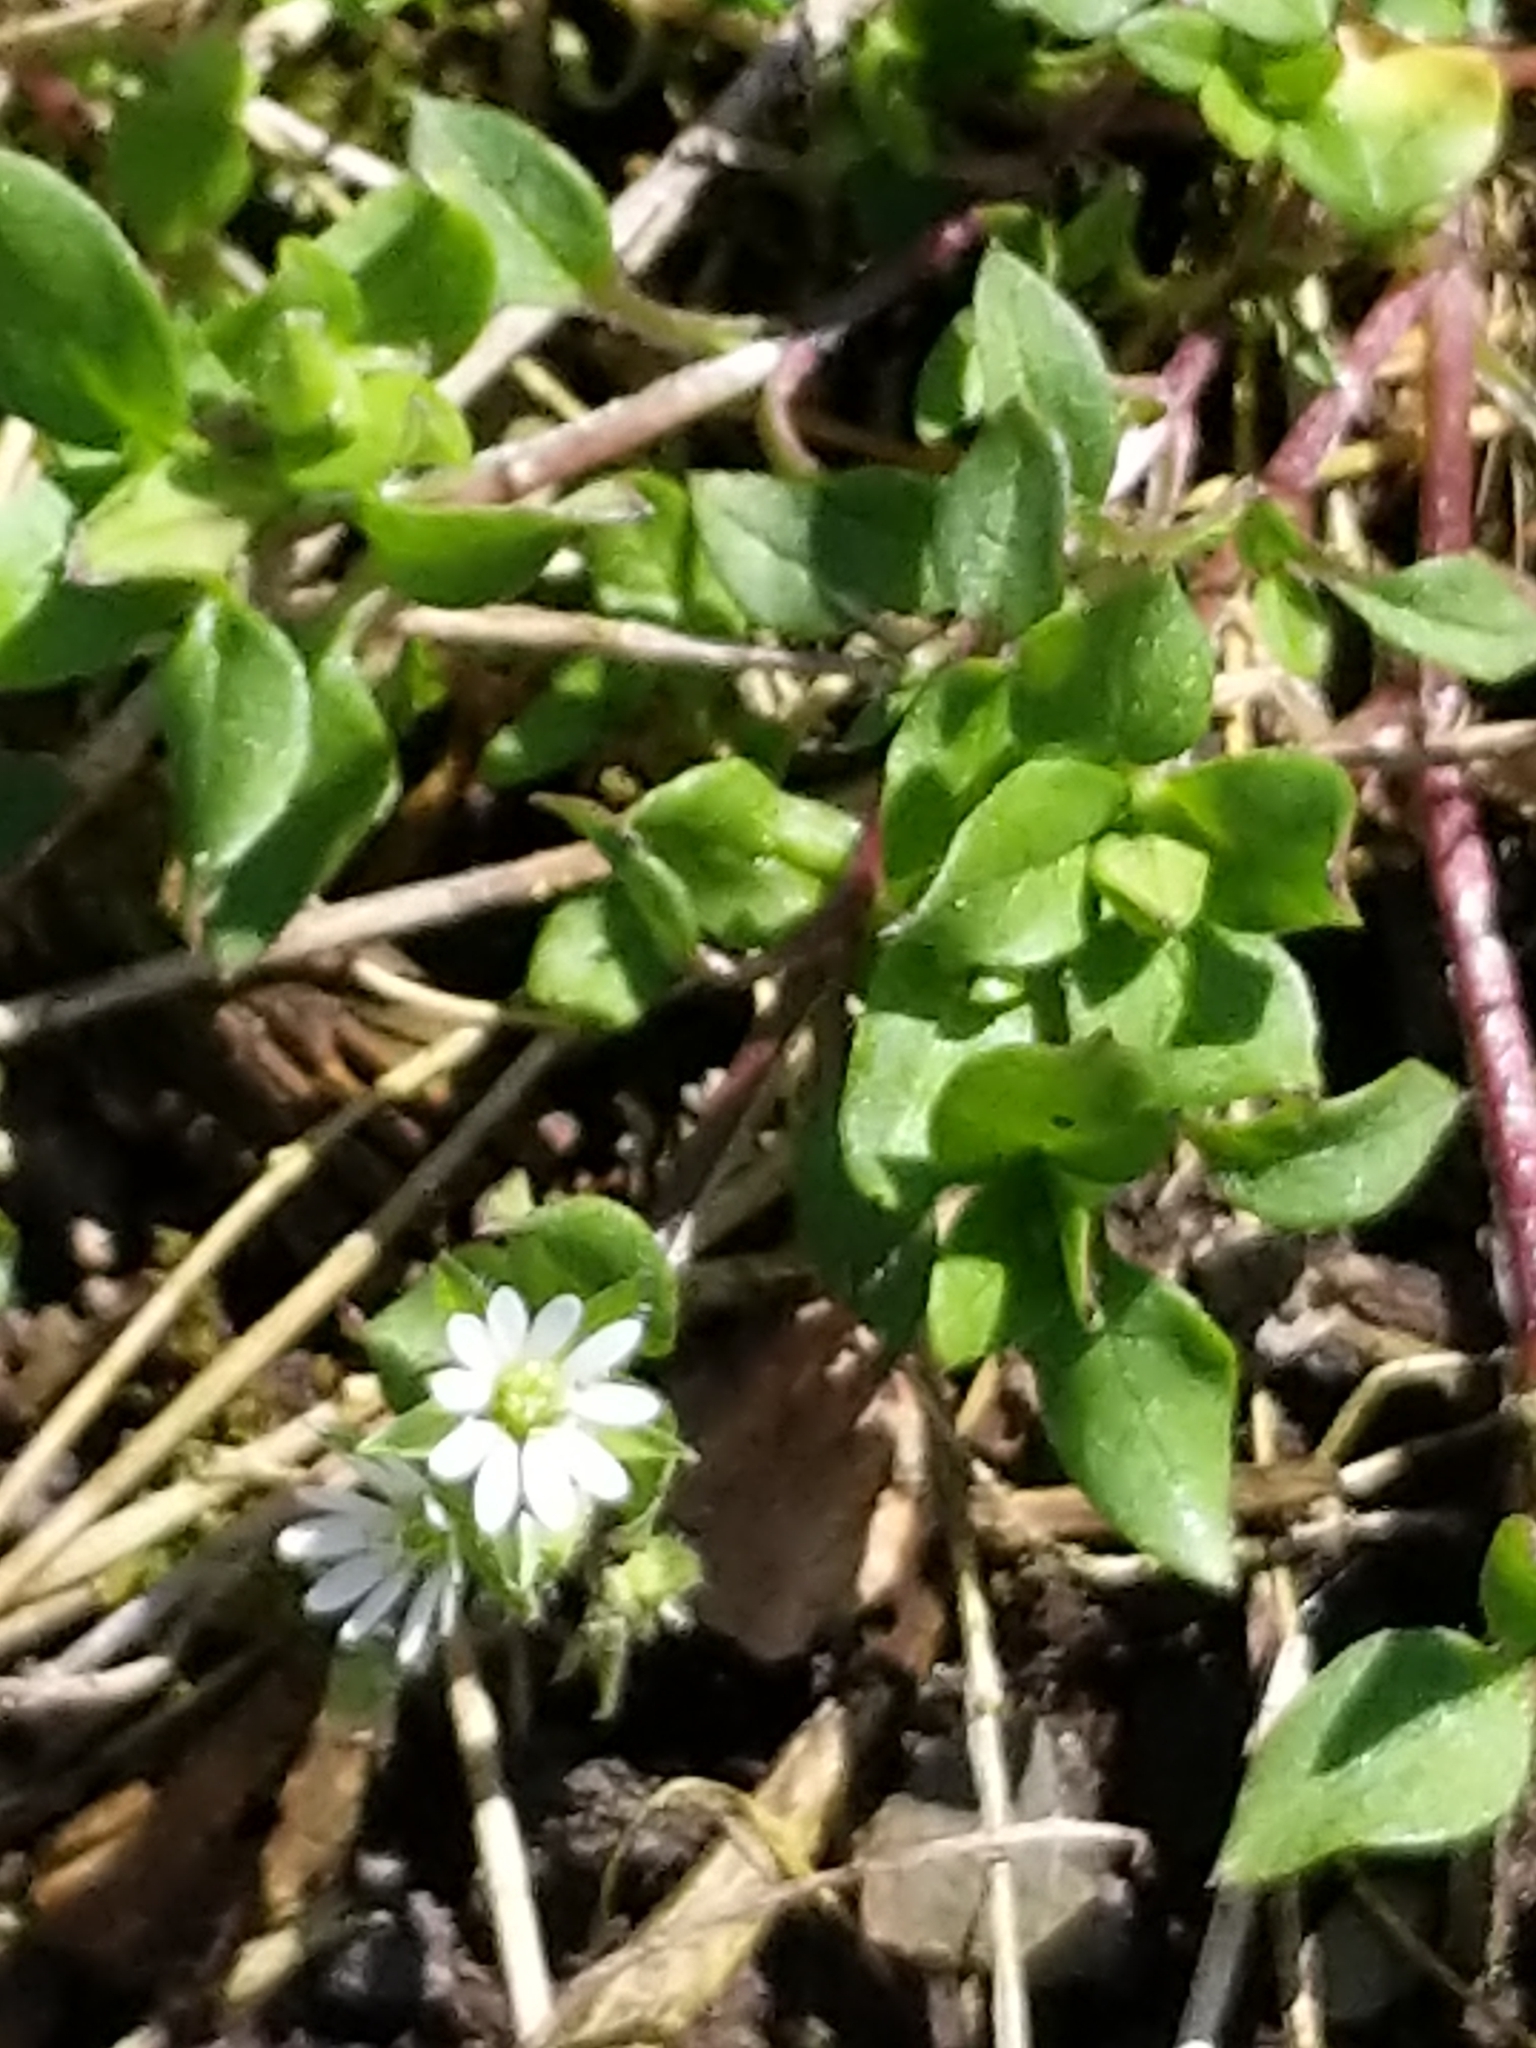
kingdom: Plantae
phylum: Tracheophyta
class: Magnoliopsida
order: Caryophyllales
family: Caryophyllaceae
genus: Stellaria
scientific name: Stellaria media
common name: Common chickweed
